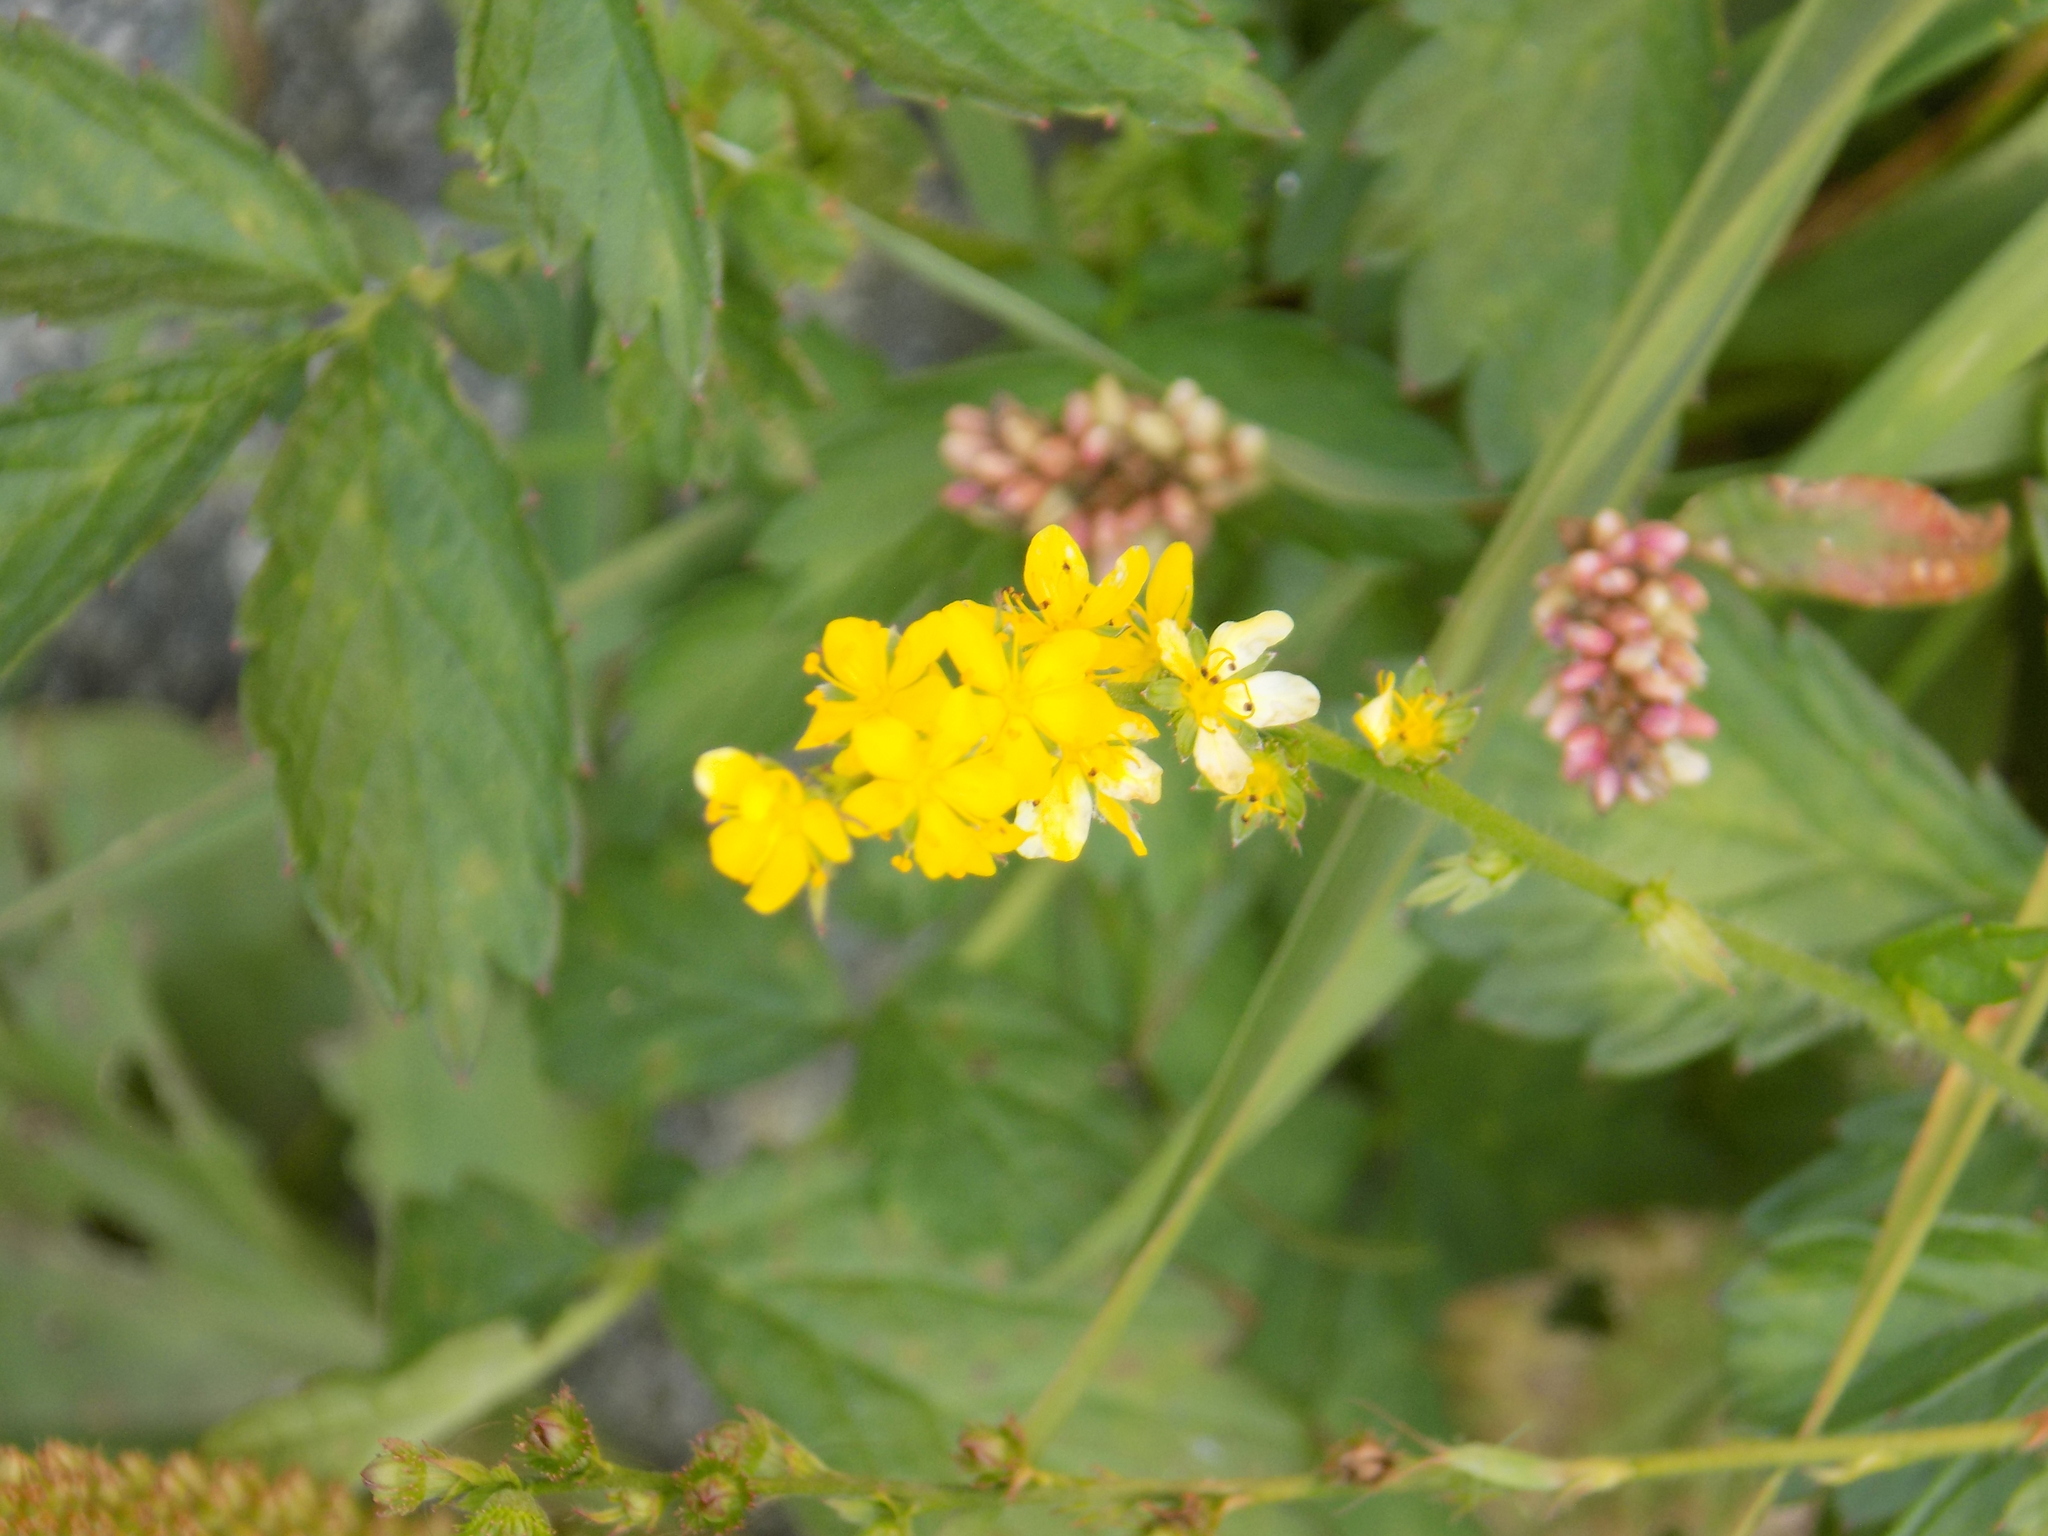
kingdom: Plantae
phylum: Tracheophyta
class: Magnoliopsida
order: Rosales
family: Rosaceae
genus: Agrimonia
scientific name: Agrimonia pilosa
